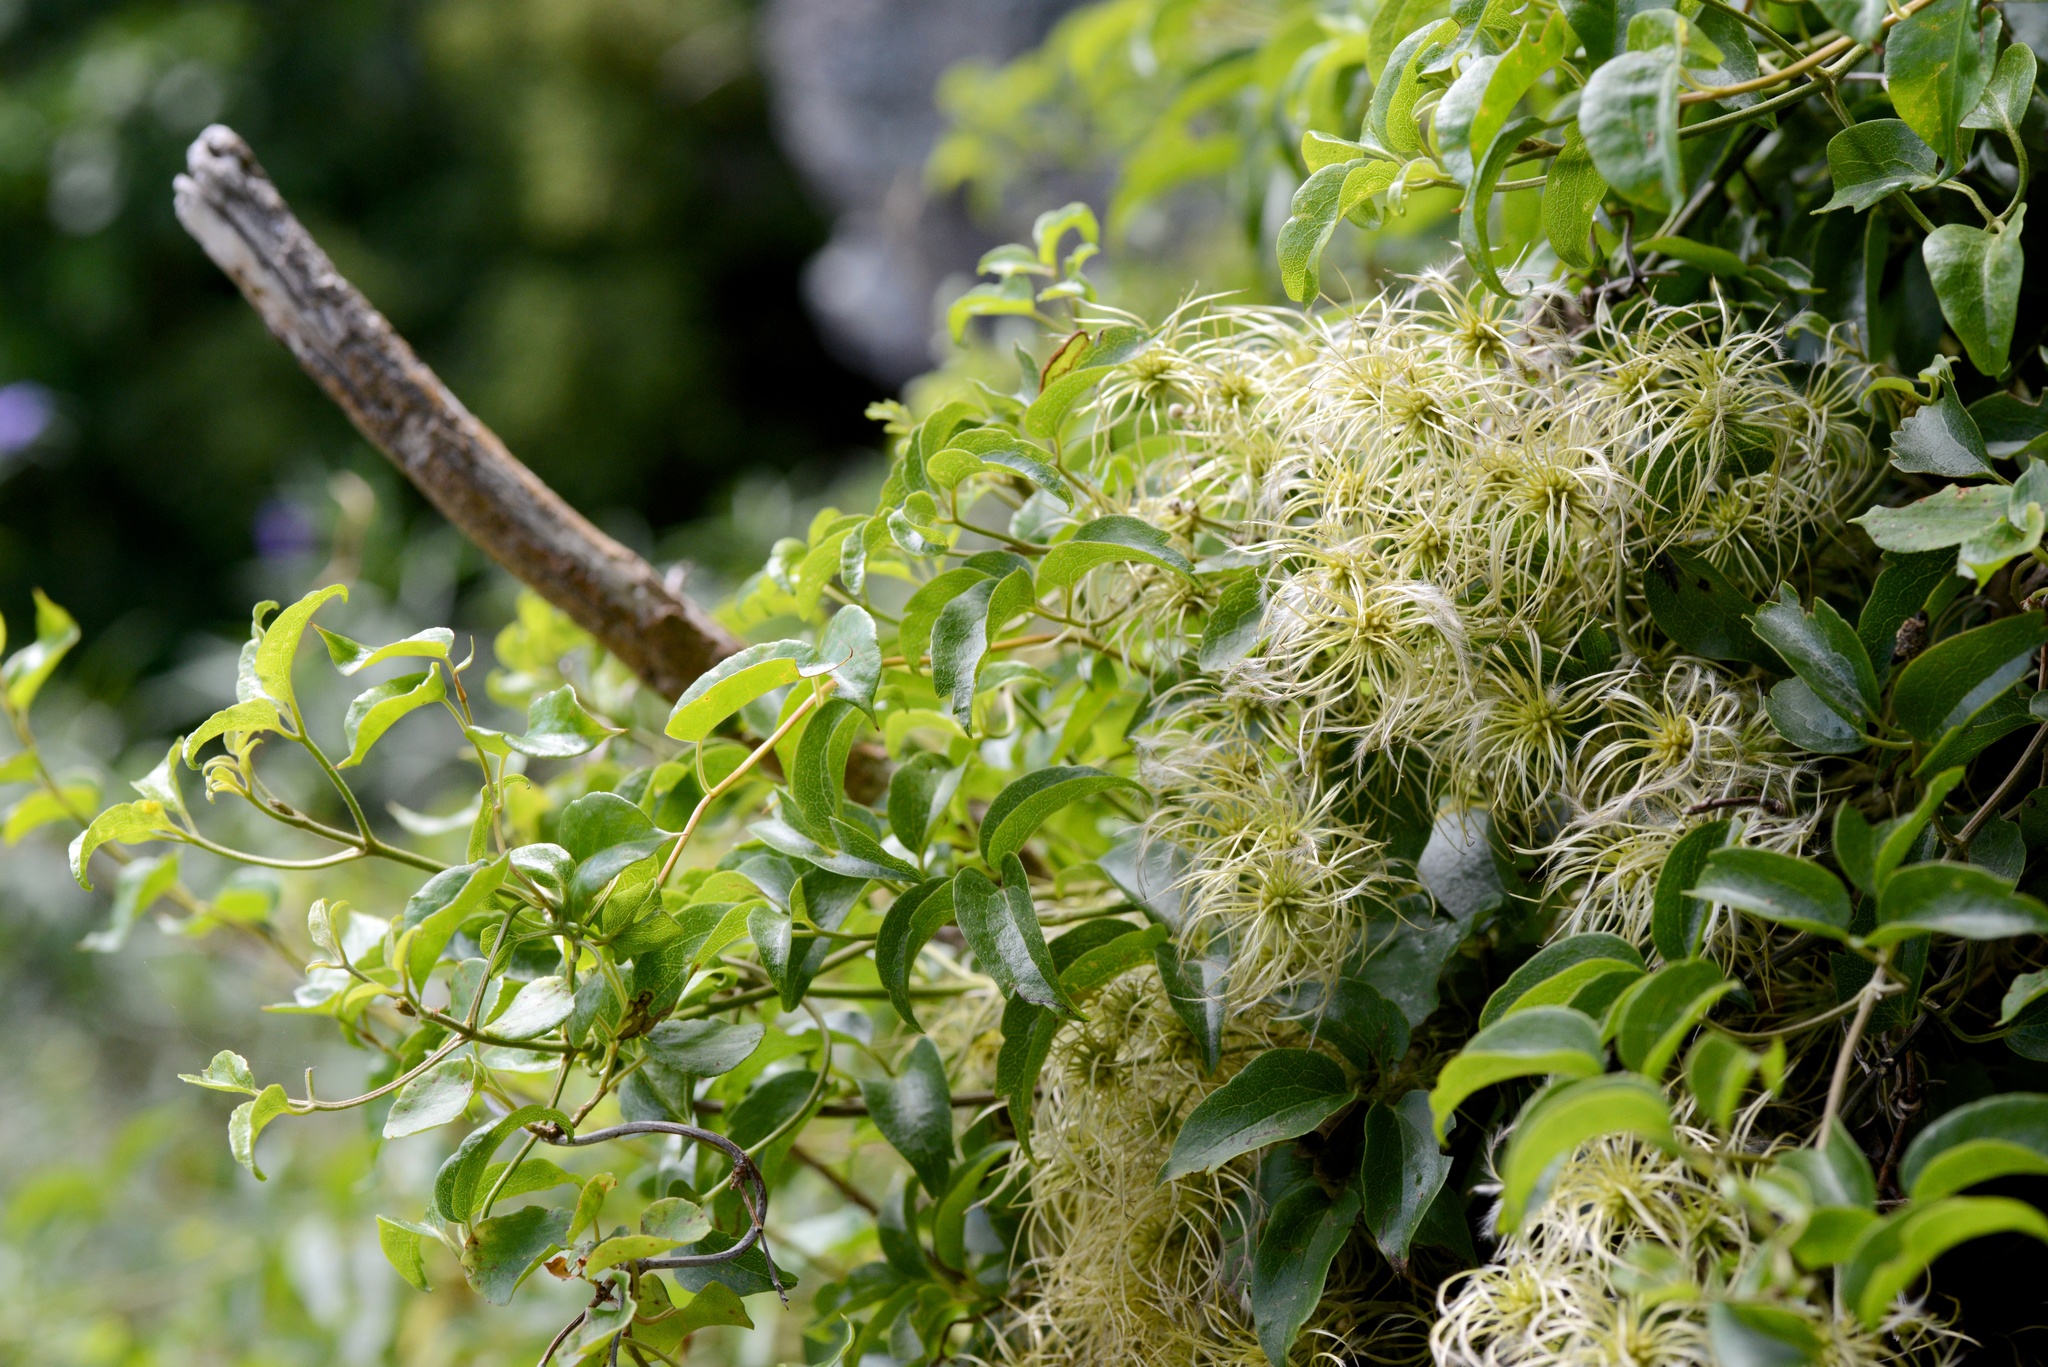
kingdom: Plantae
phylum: Tracheophyta
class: Magnoliopsida
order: Ranunculales
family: Ranunculaceae
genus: Clematis
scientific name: Clematis foetida
